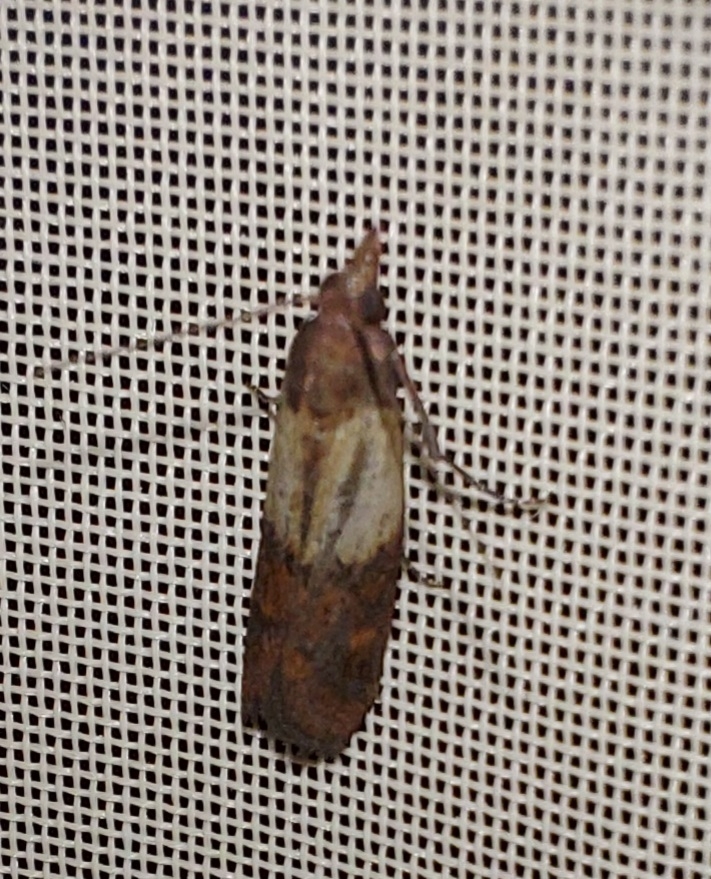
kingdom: Animalia
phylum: Arthropoda
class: Insecta
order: Lepidoptera
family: Pyralidae
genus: Plodia
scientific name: Plodia interpunctella
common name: Indian meal moth
